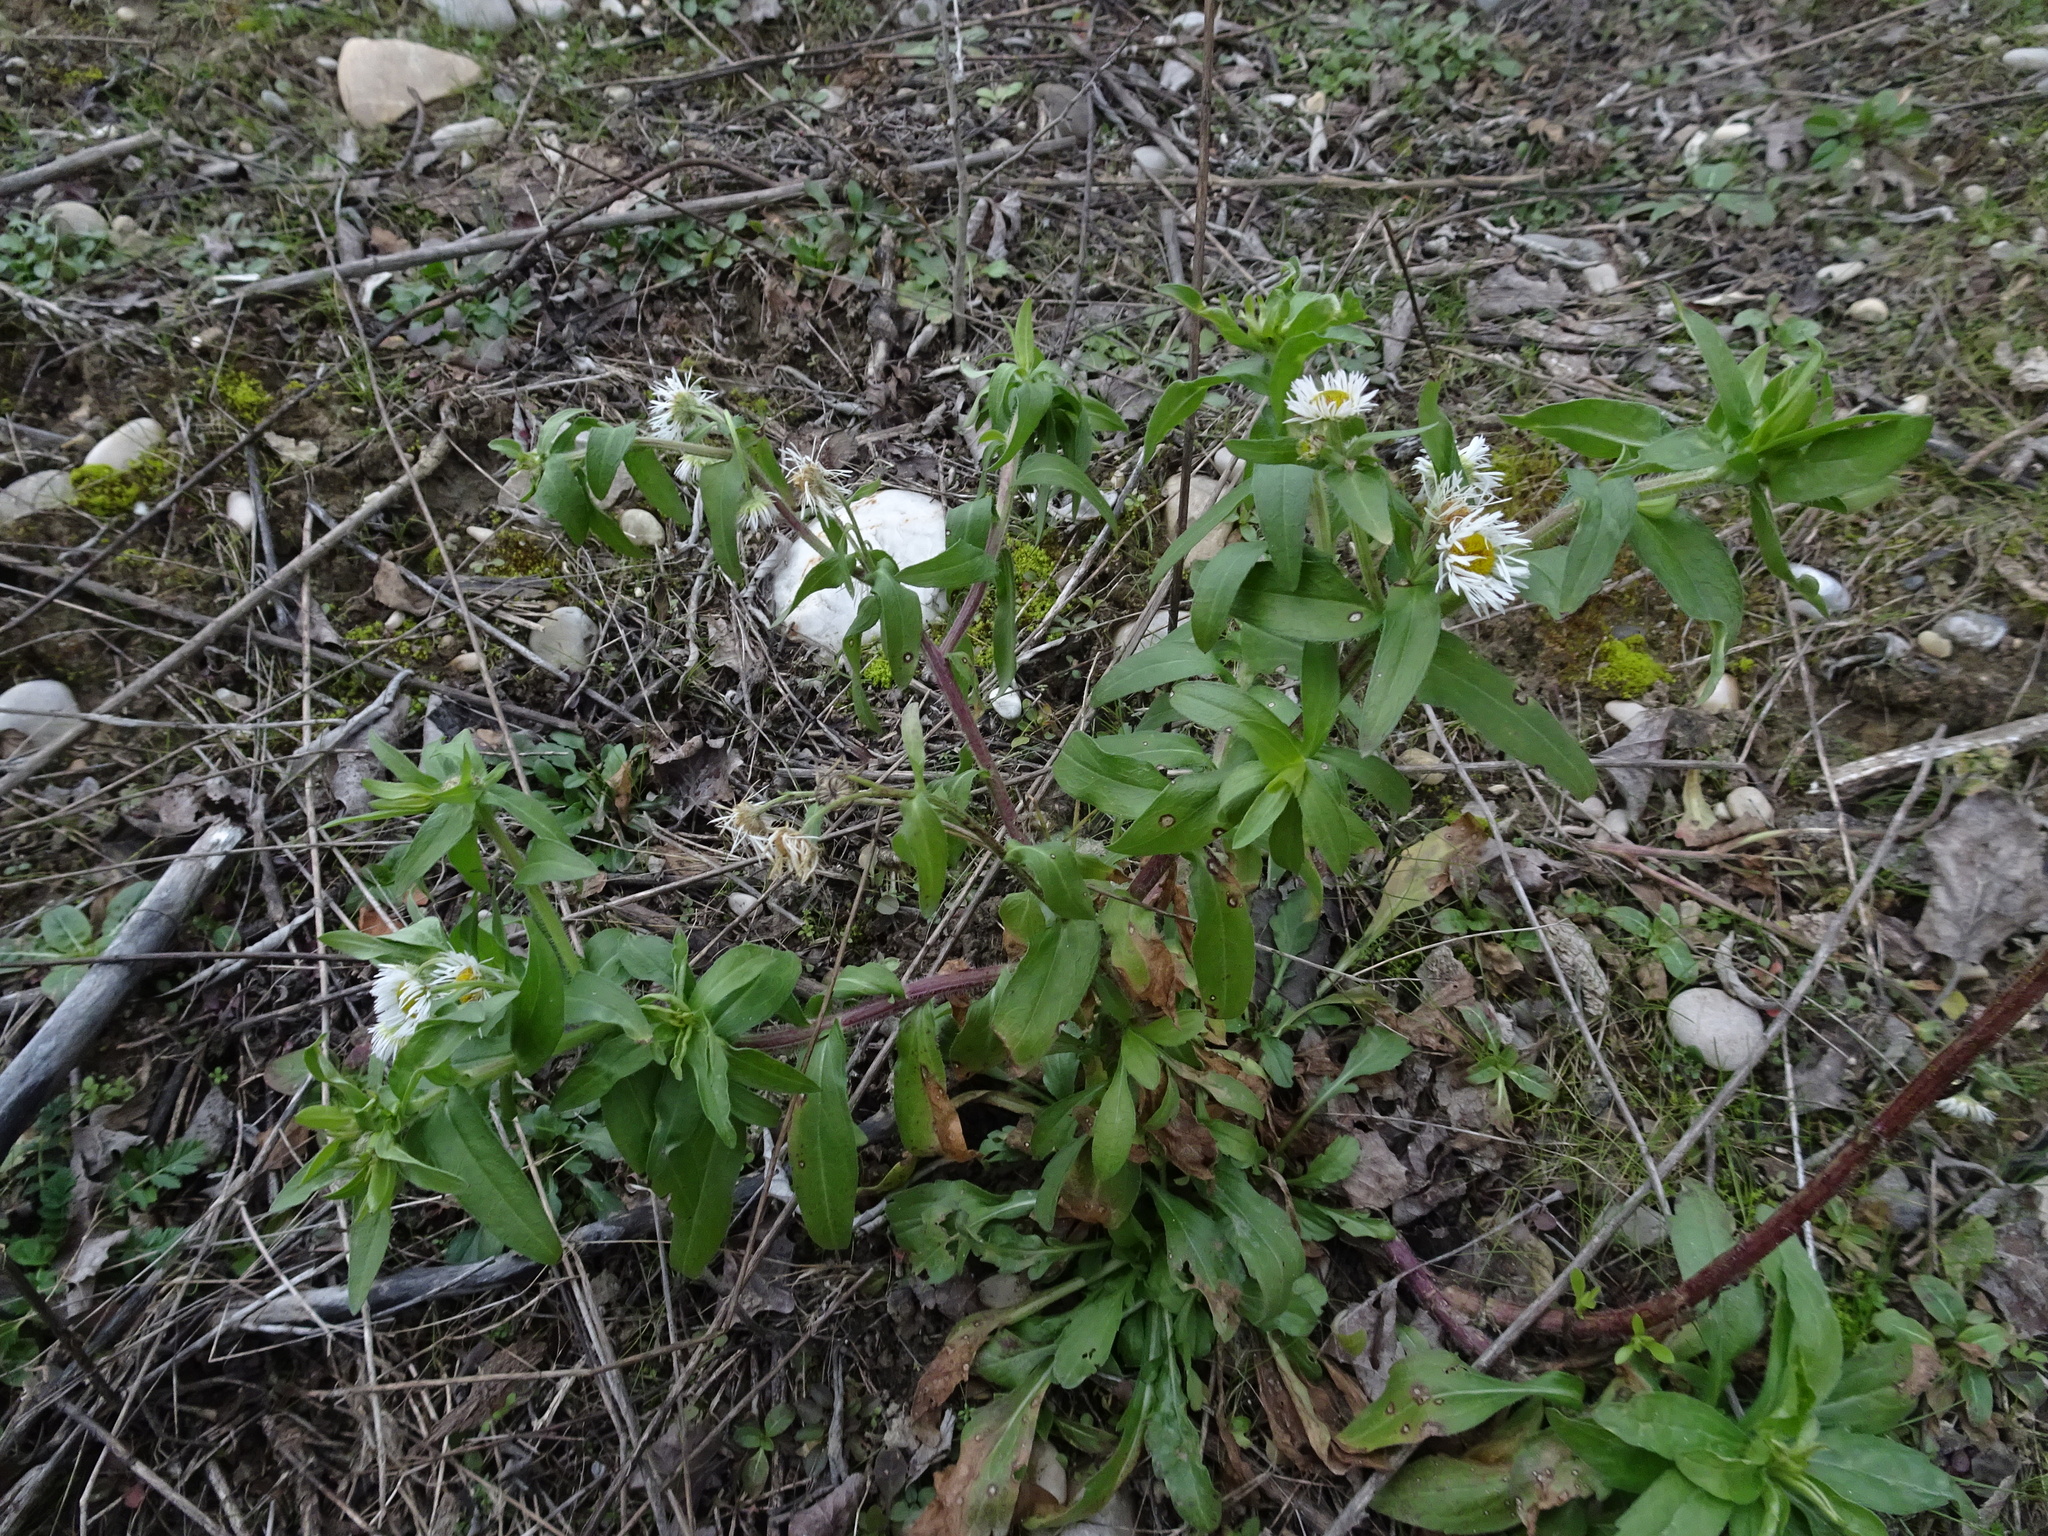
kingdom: Plantae
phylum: Tracheophyta
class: Magnoliopsida
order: Asterales
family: Asteraceae
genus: Erigeron
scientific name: Erigeron annuus
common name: Tall fleabane
